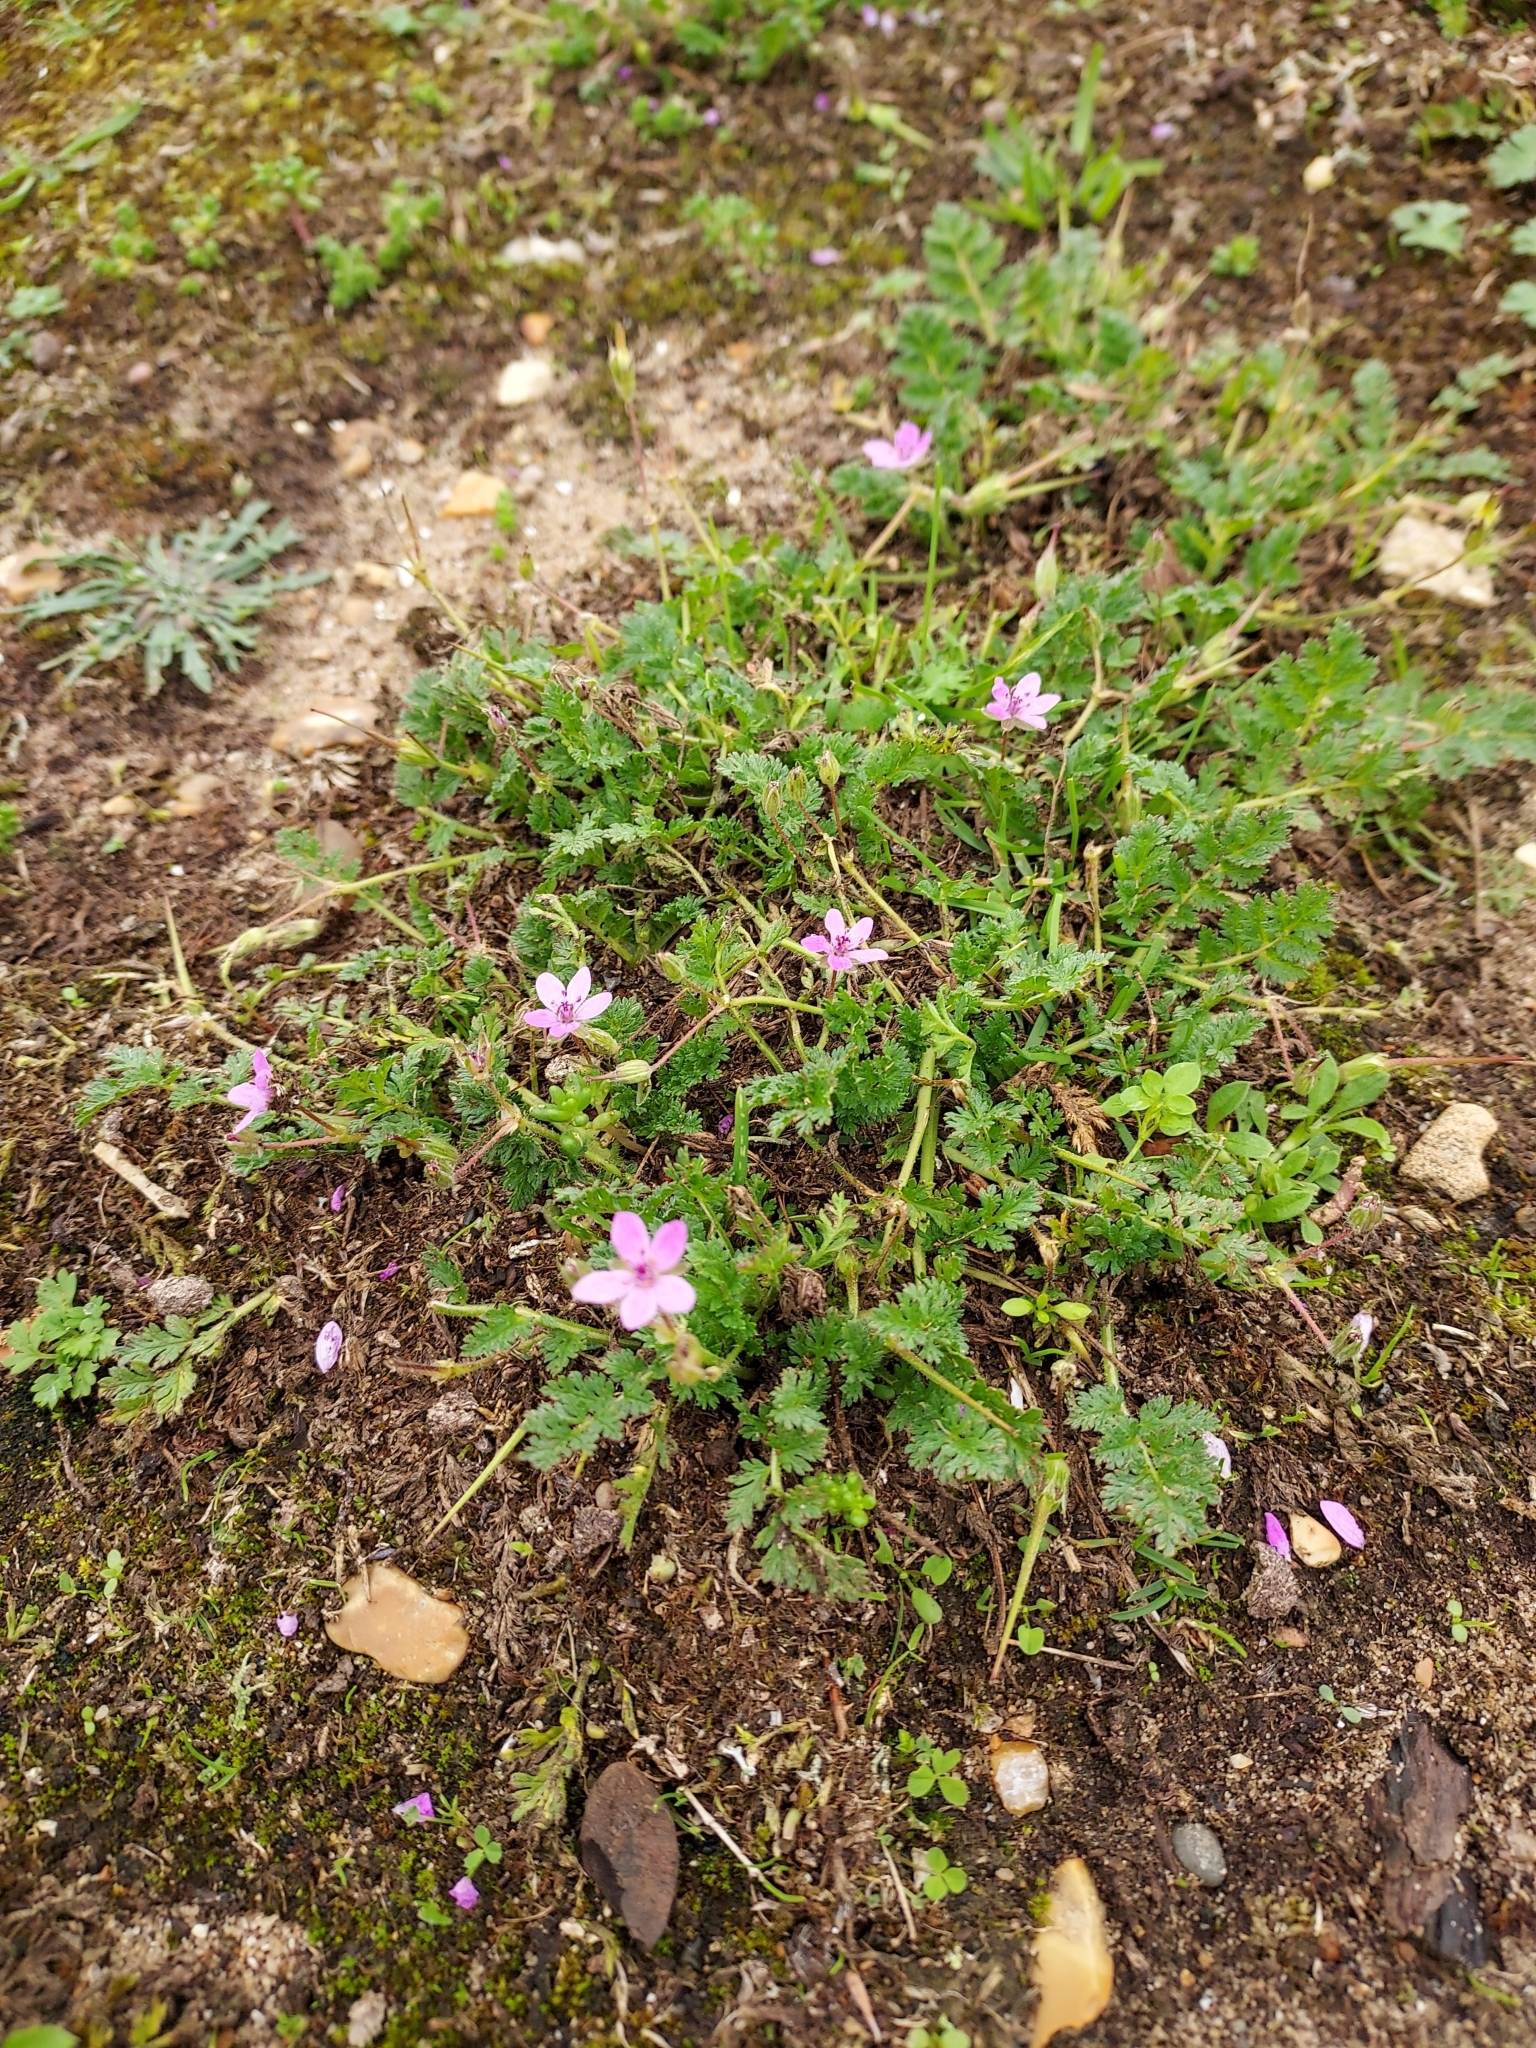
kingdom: Plantae
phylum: Tracheophyta
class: Magnoliopsida
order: Geraniales
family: Geraniaceae
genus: Erodium
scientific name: Erodium cicutarium
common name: Common stork's-bill
